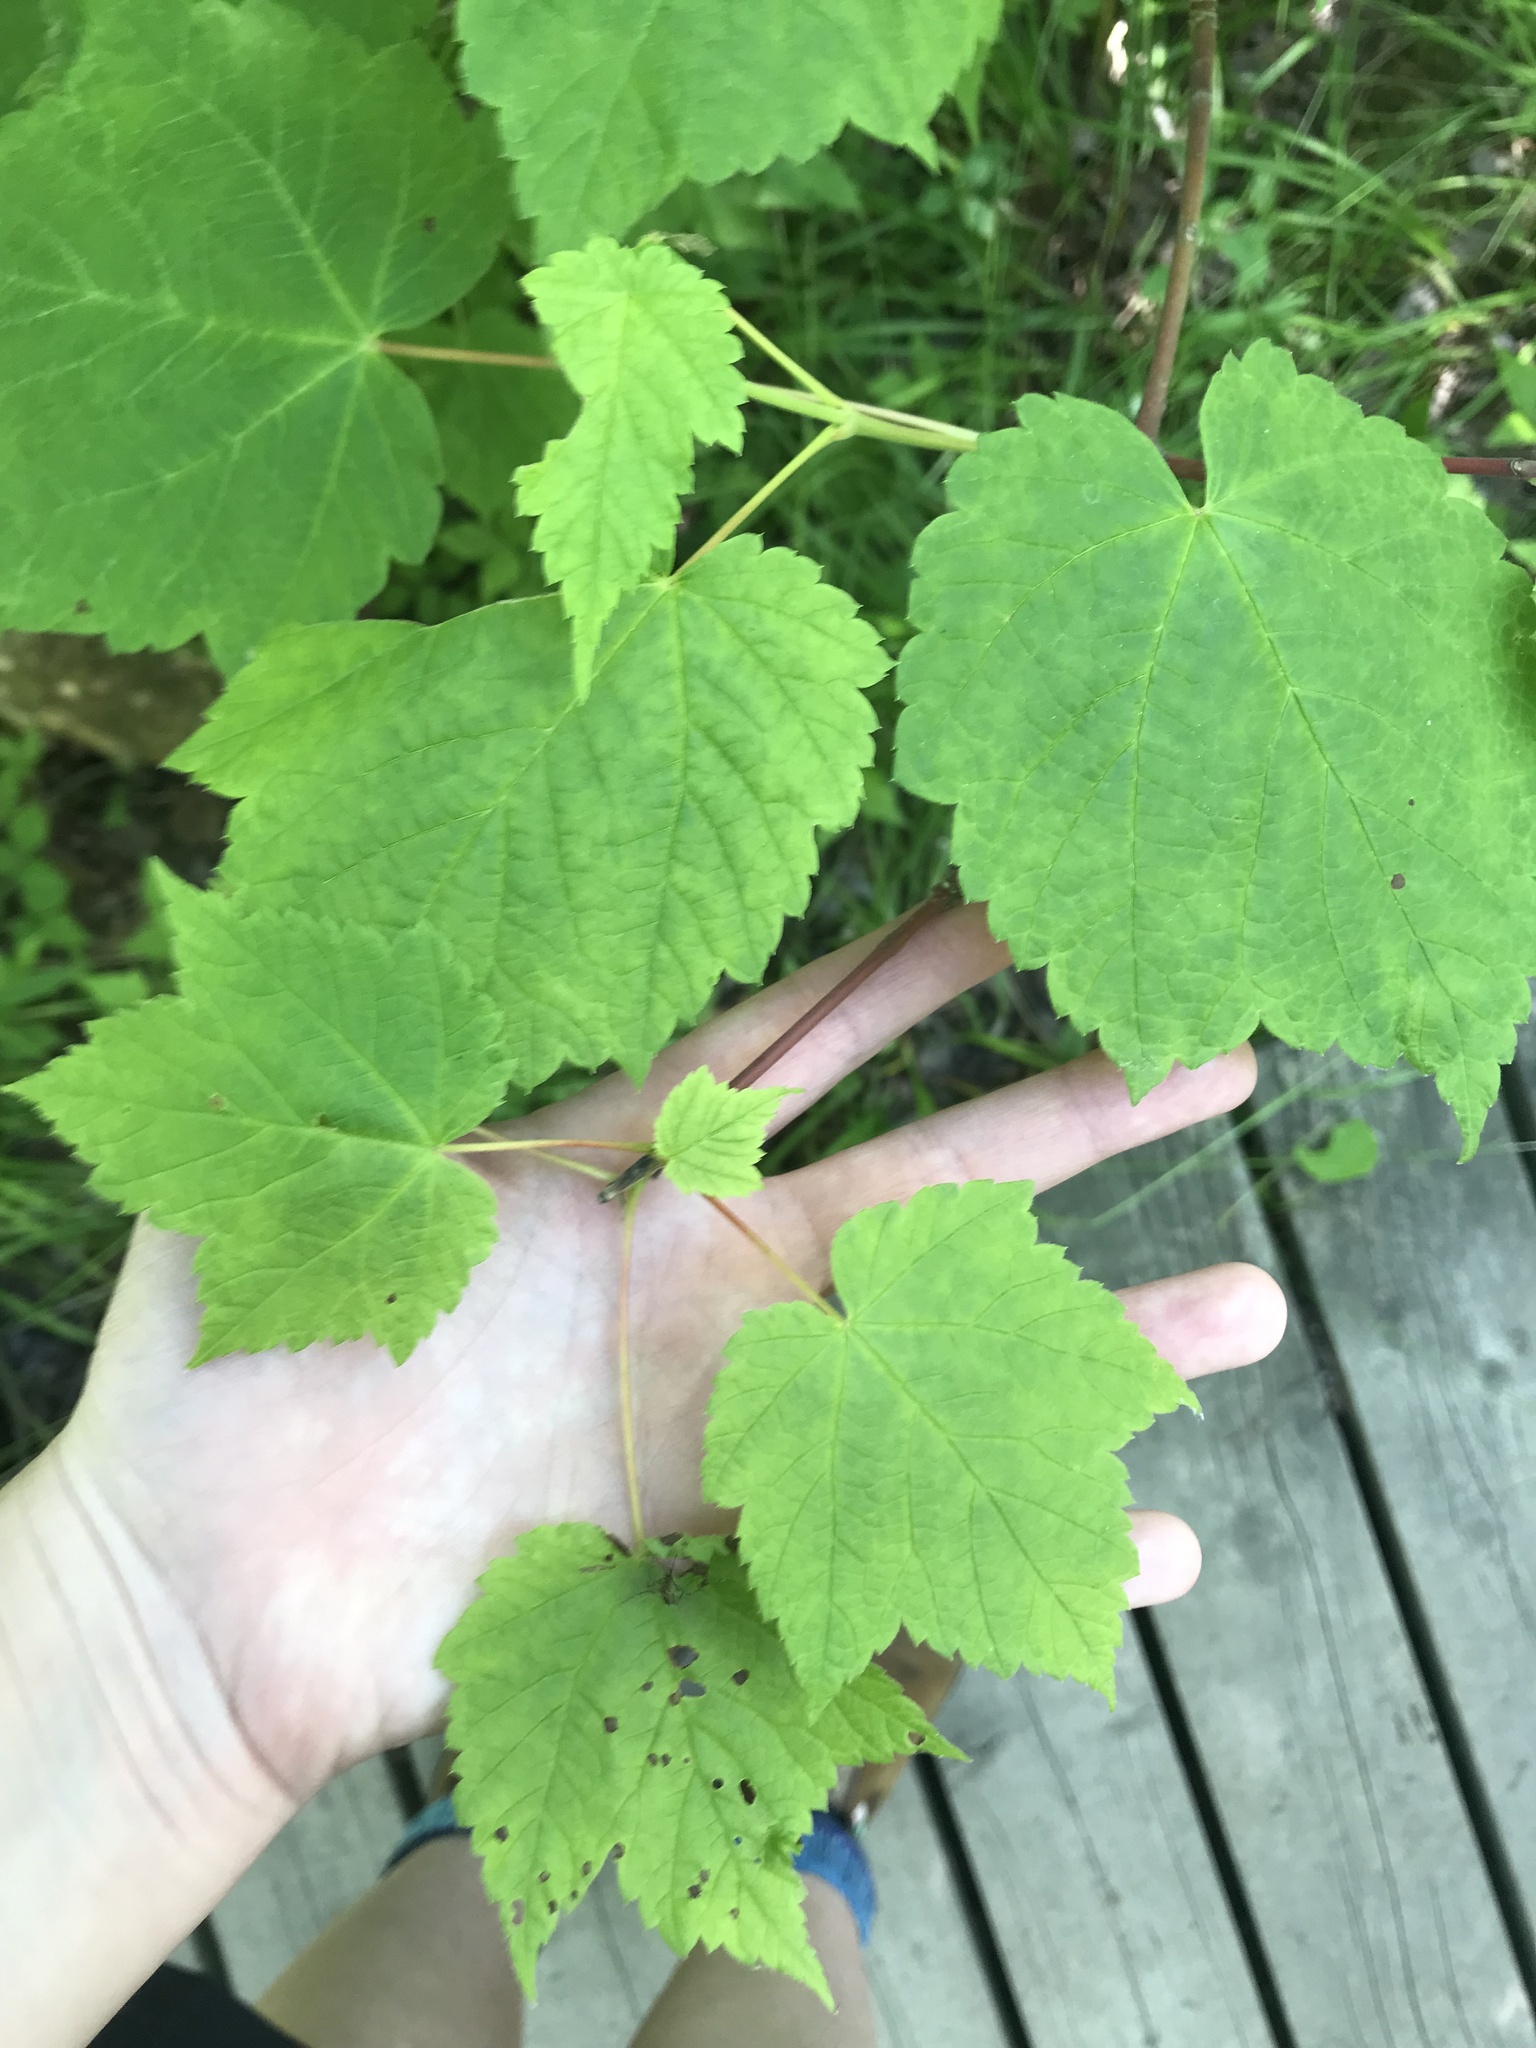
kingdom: Plantae
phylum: Tracheophyta
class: Magnoliopsida
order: Sapindales
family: Sapindaceae
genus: Acer
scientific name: Acer spicatum
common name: Mountain maple
